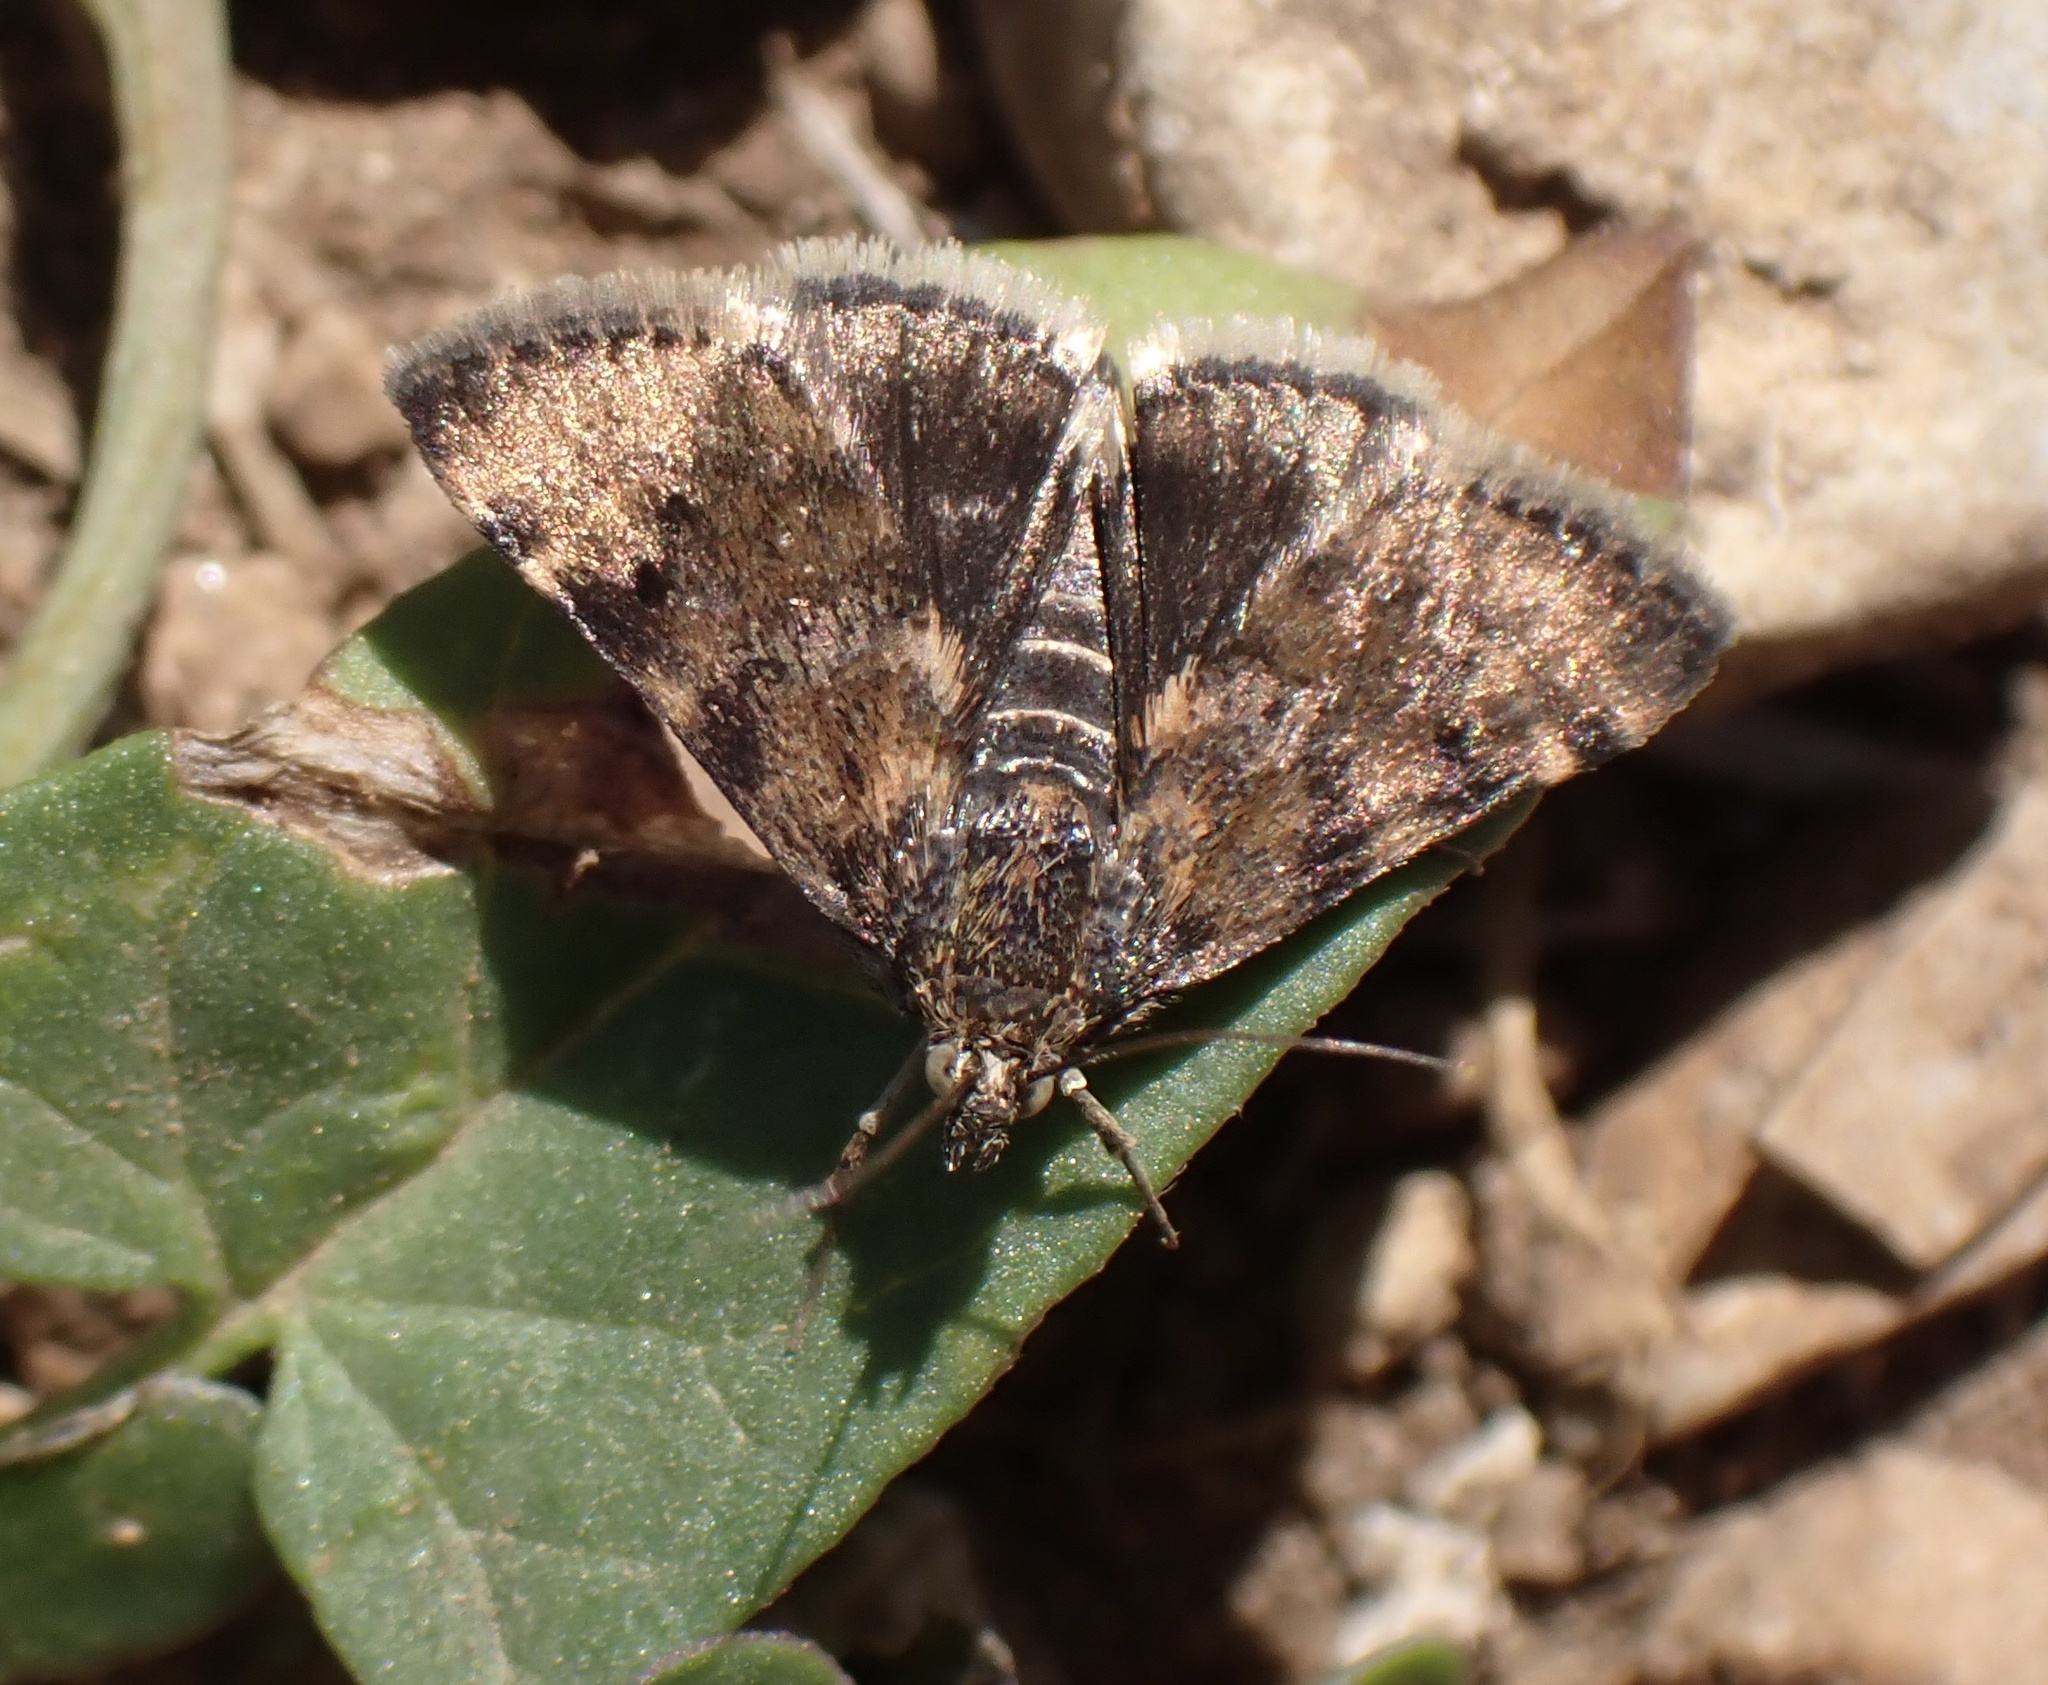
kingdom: Animalia
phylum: Arthropoda
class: Insecta
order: Lepidoptera
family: Crambidae
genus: Noctuelia
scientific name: Noctuelia Aporodes floralis
